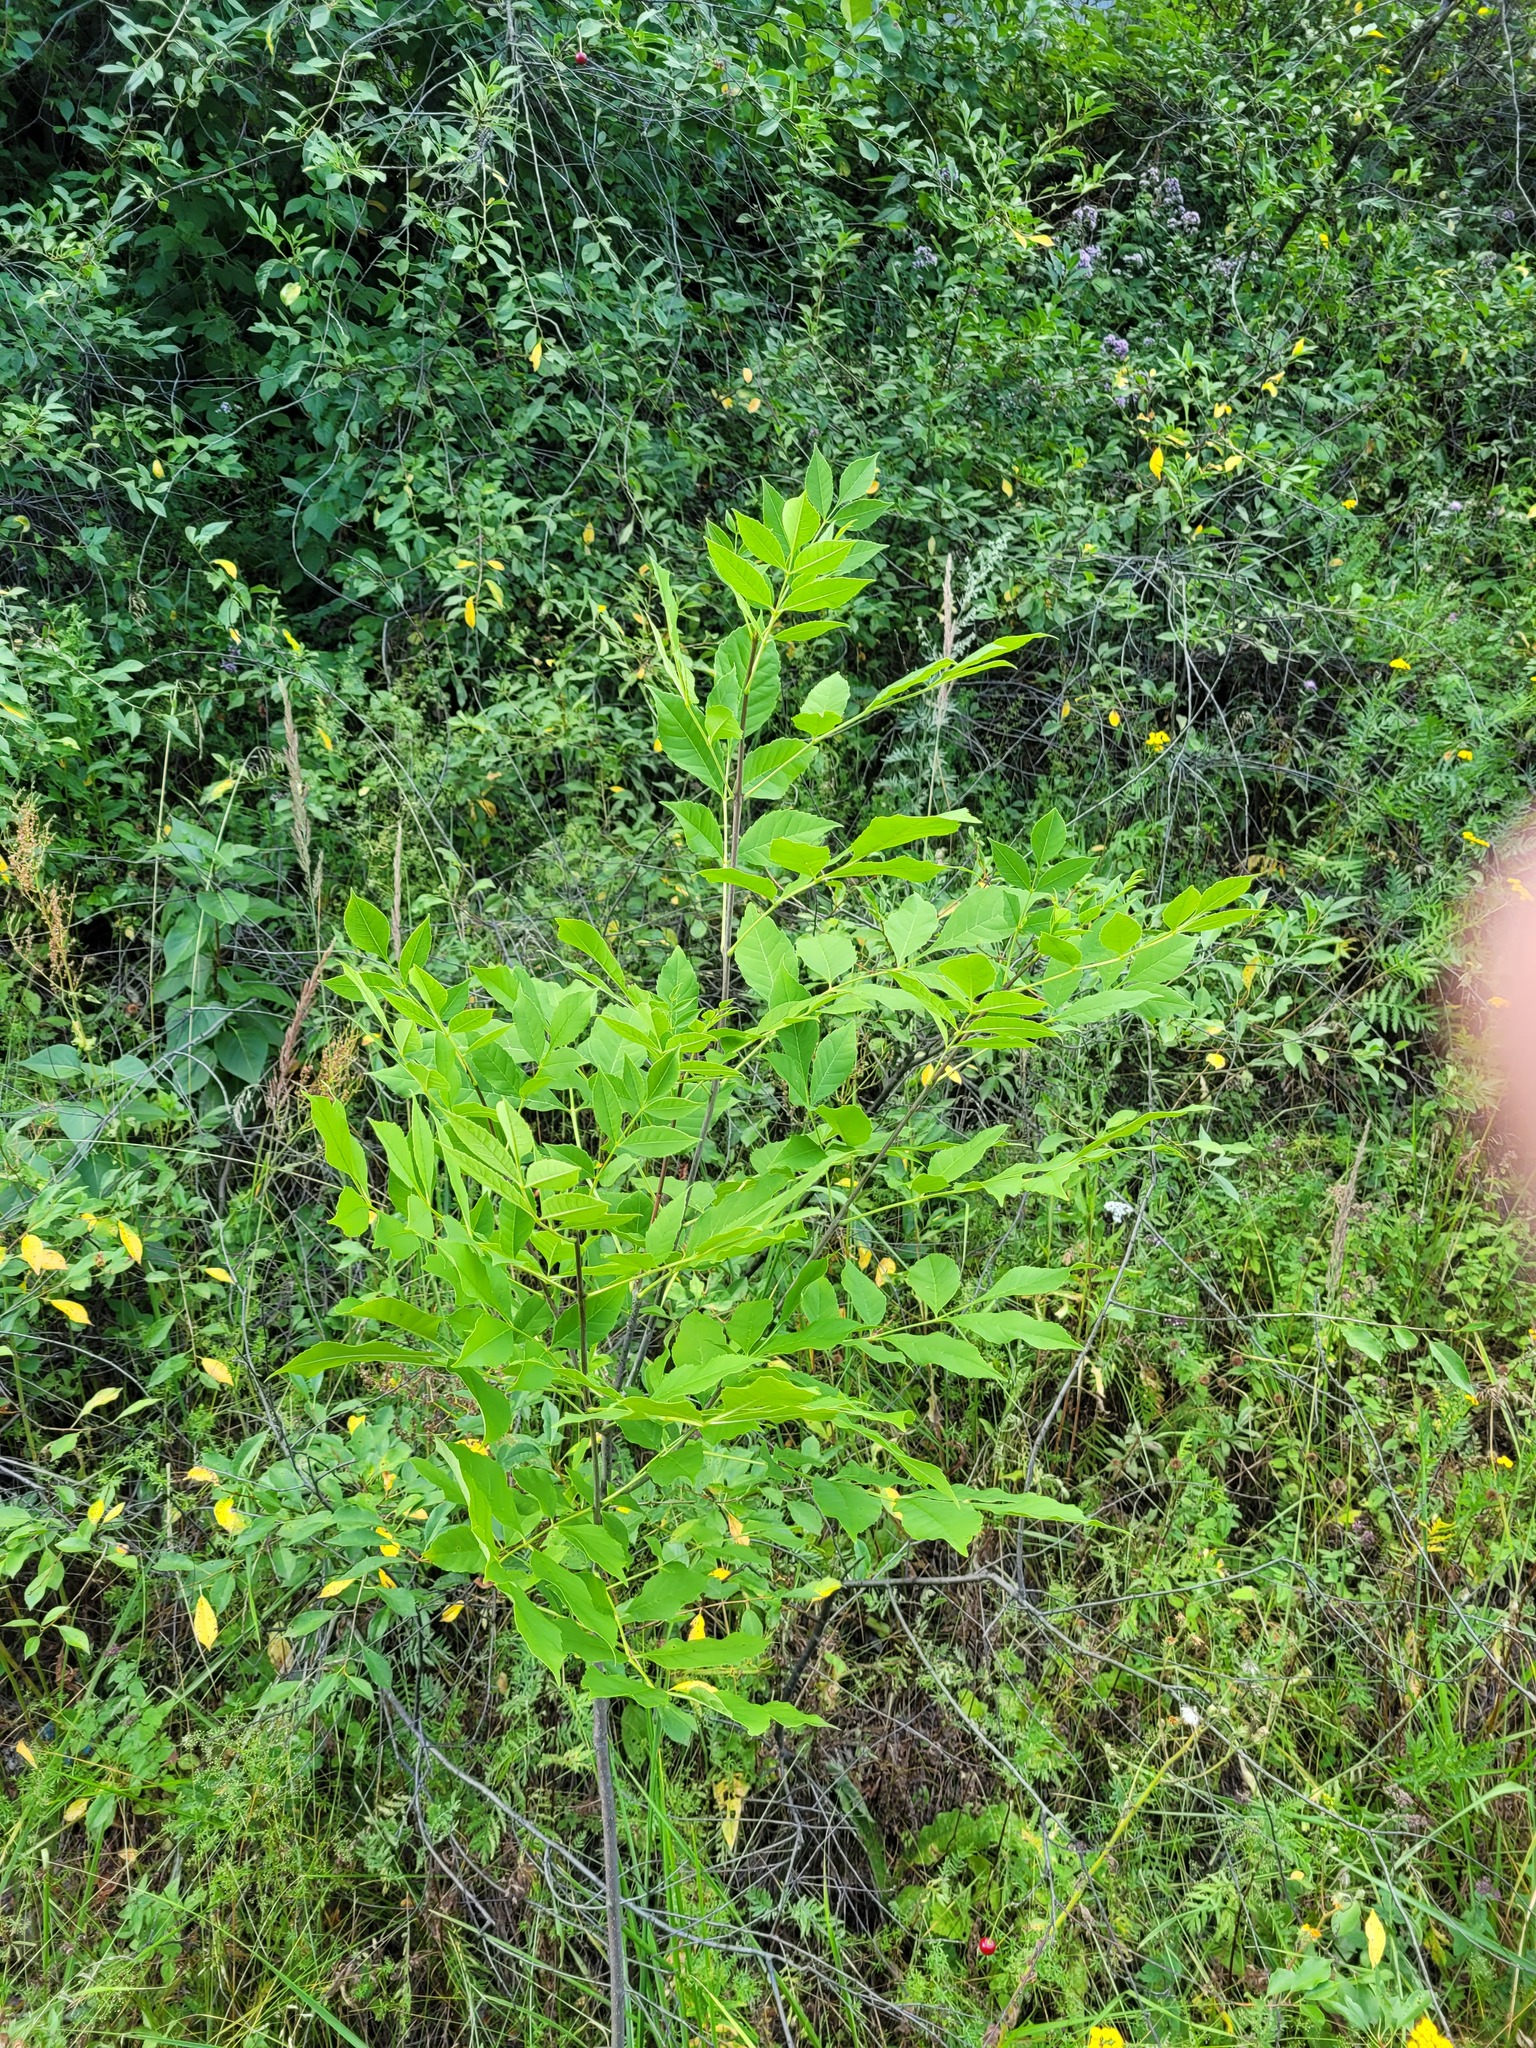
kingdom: Plantae
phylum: Tracheophyta
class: Magnoliopsida
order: Lamiales
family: Oleaceae
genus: Fraxinus
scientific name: Fraxinus pennsylvanica
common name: Green ash
